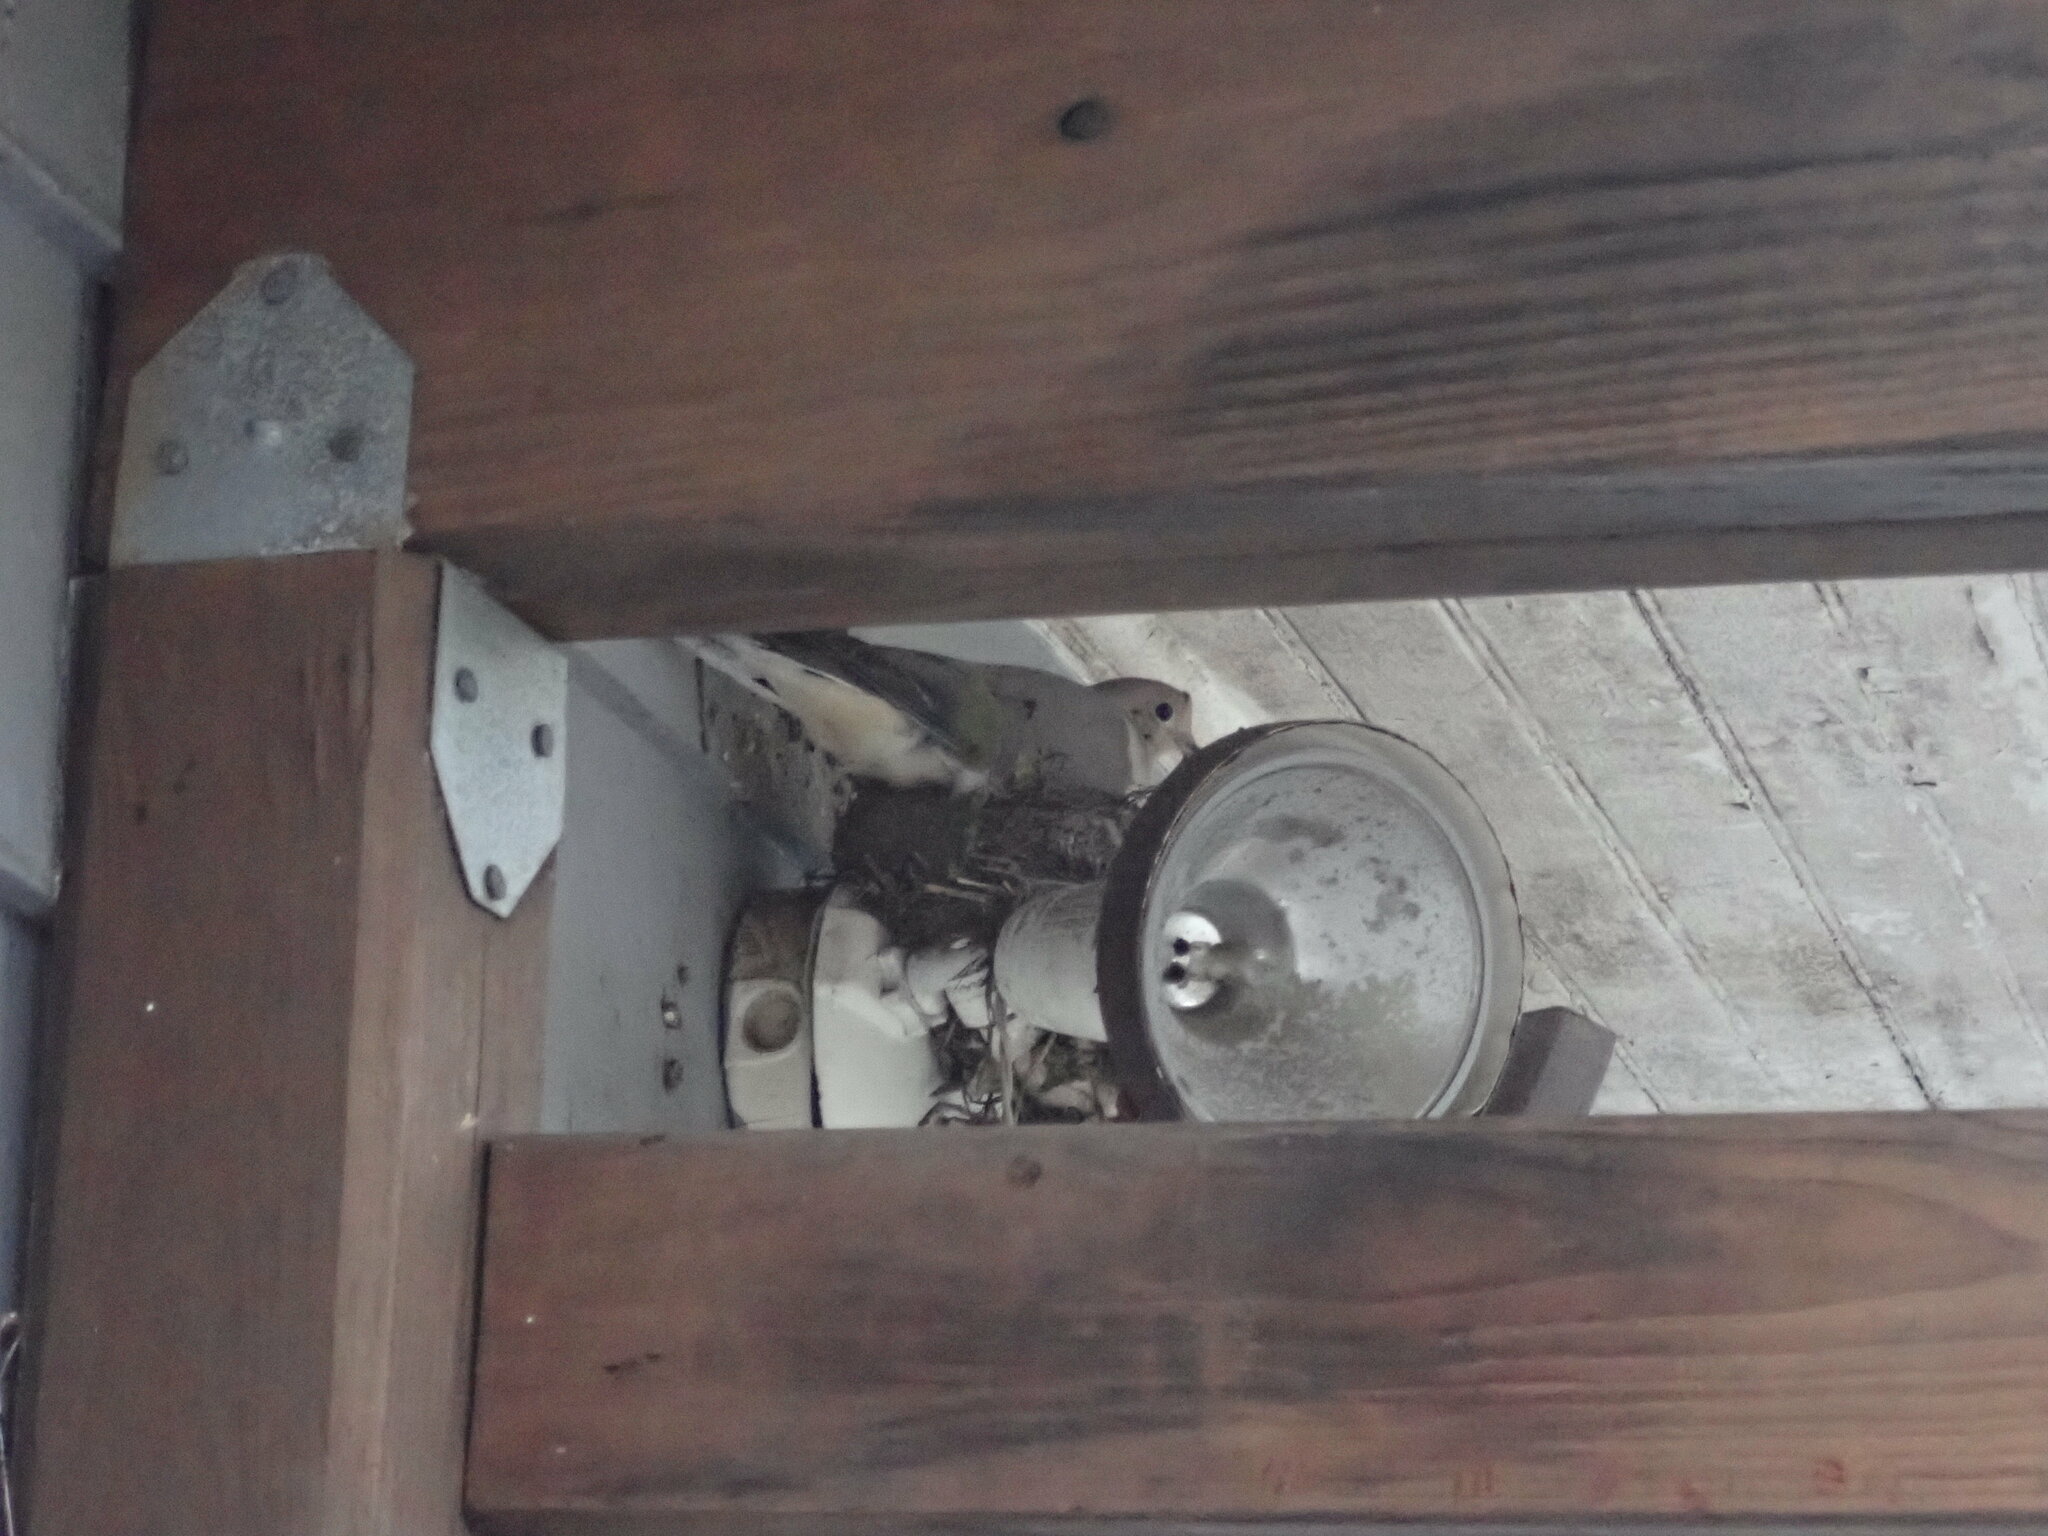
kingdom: Animalia
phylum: Chordata
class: Aves
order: Columbiformes
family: Columbidae
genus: Zenaida
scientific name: Zenaida macroura
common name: Mourning dove
